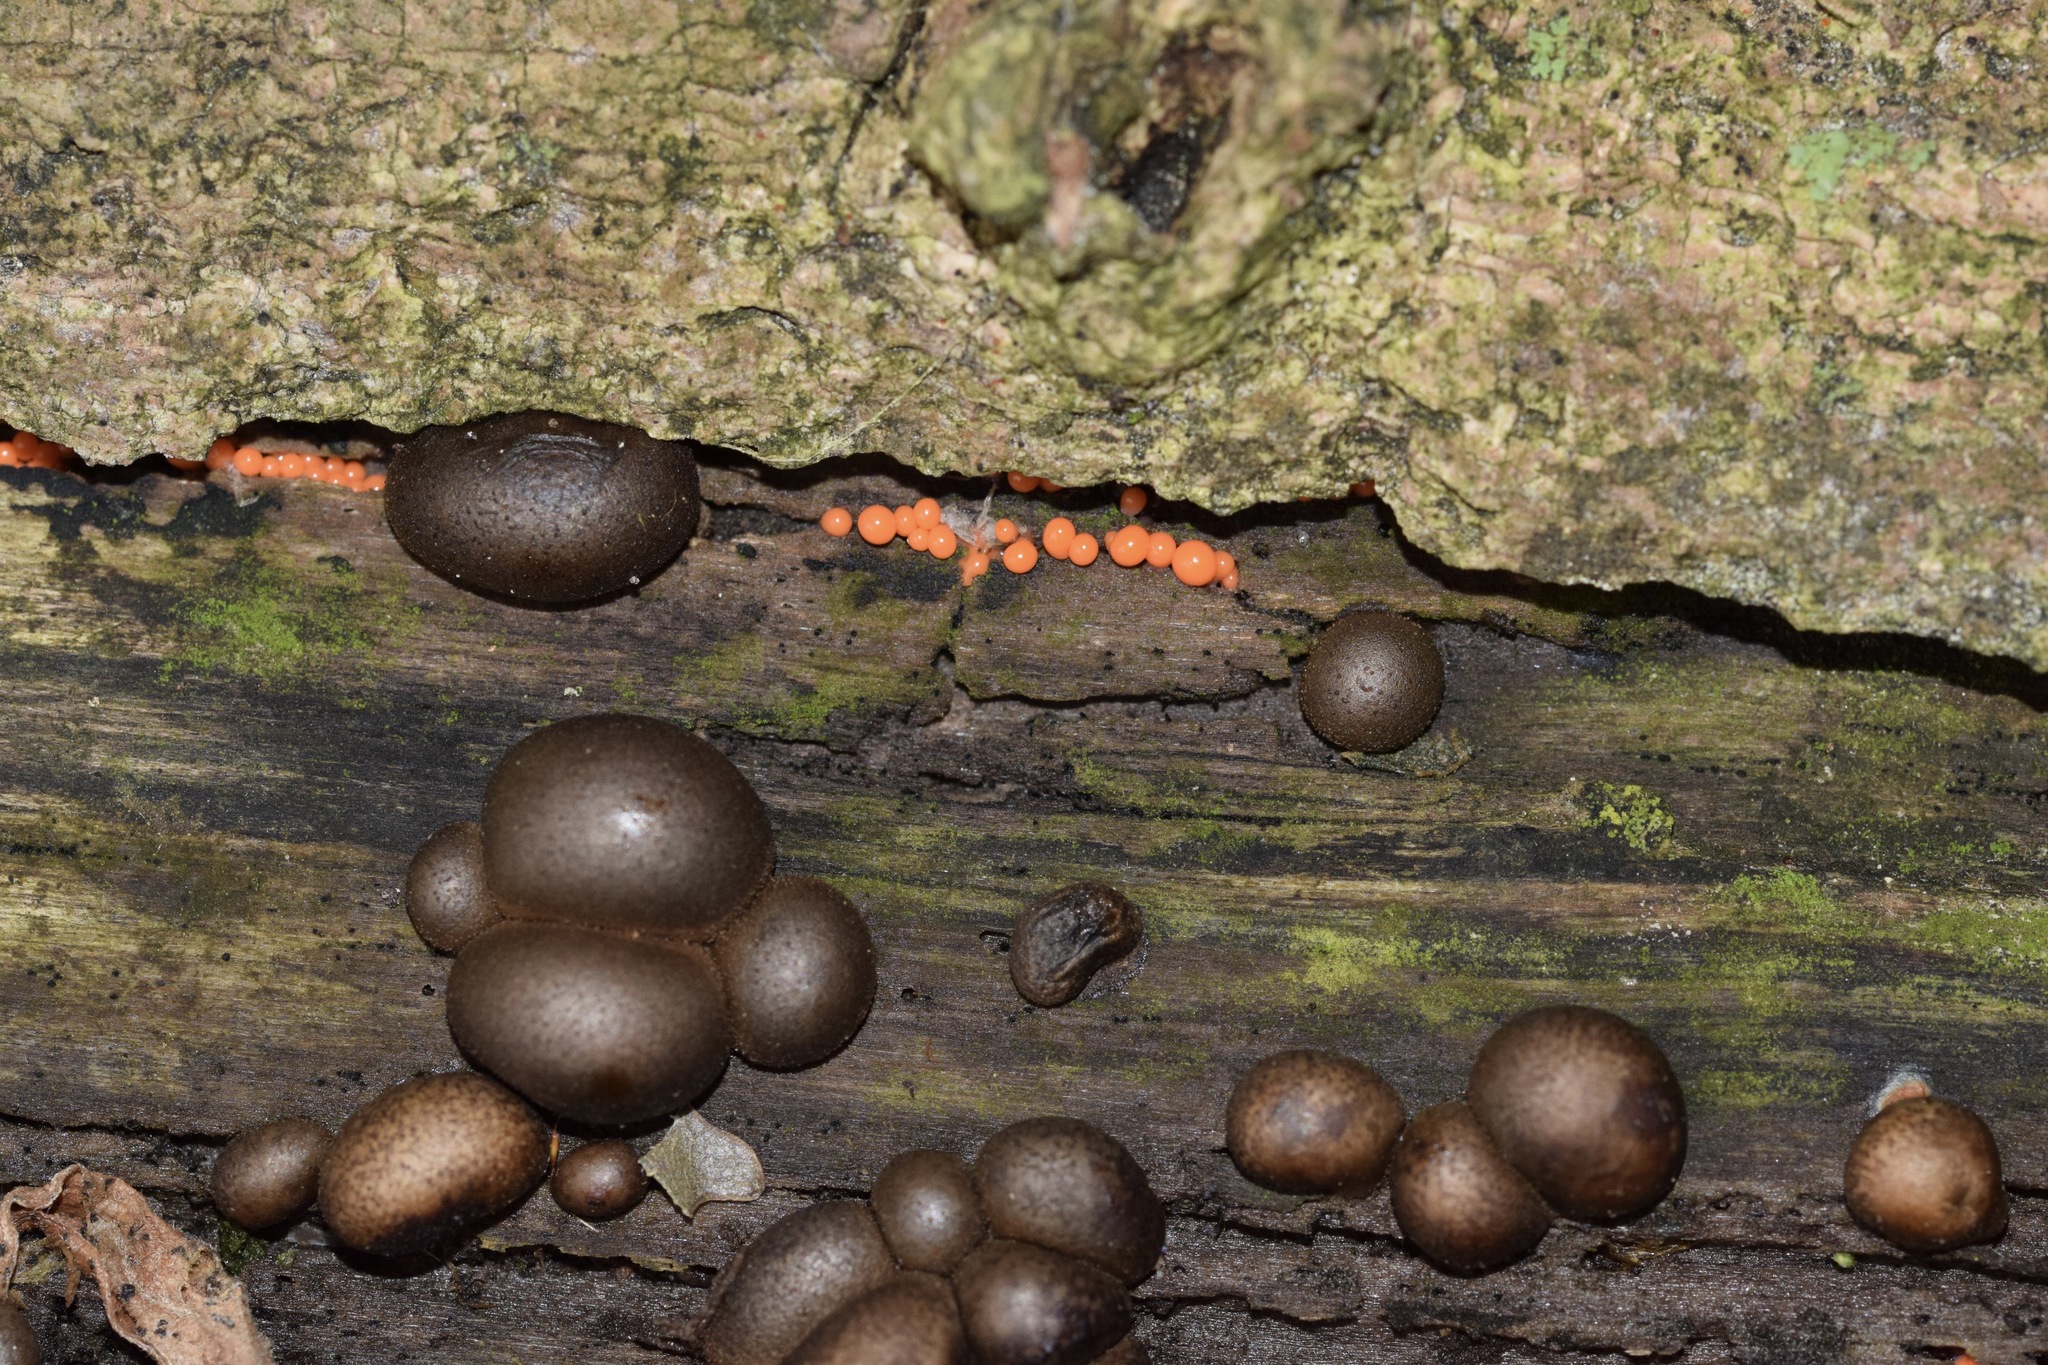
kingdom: Protozoa
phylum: Mycetozoa
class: Myxomycetes
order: Trichiales
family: Arcyriaceae
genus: Hemitrichia
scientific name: Hemitrichia decipiens
